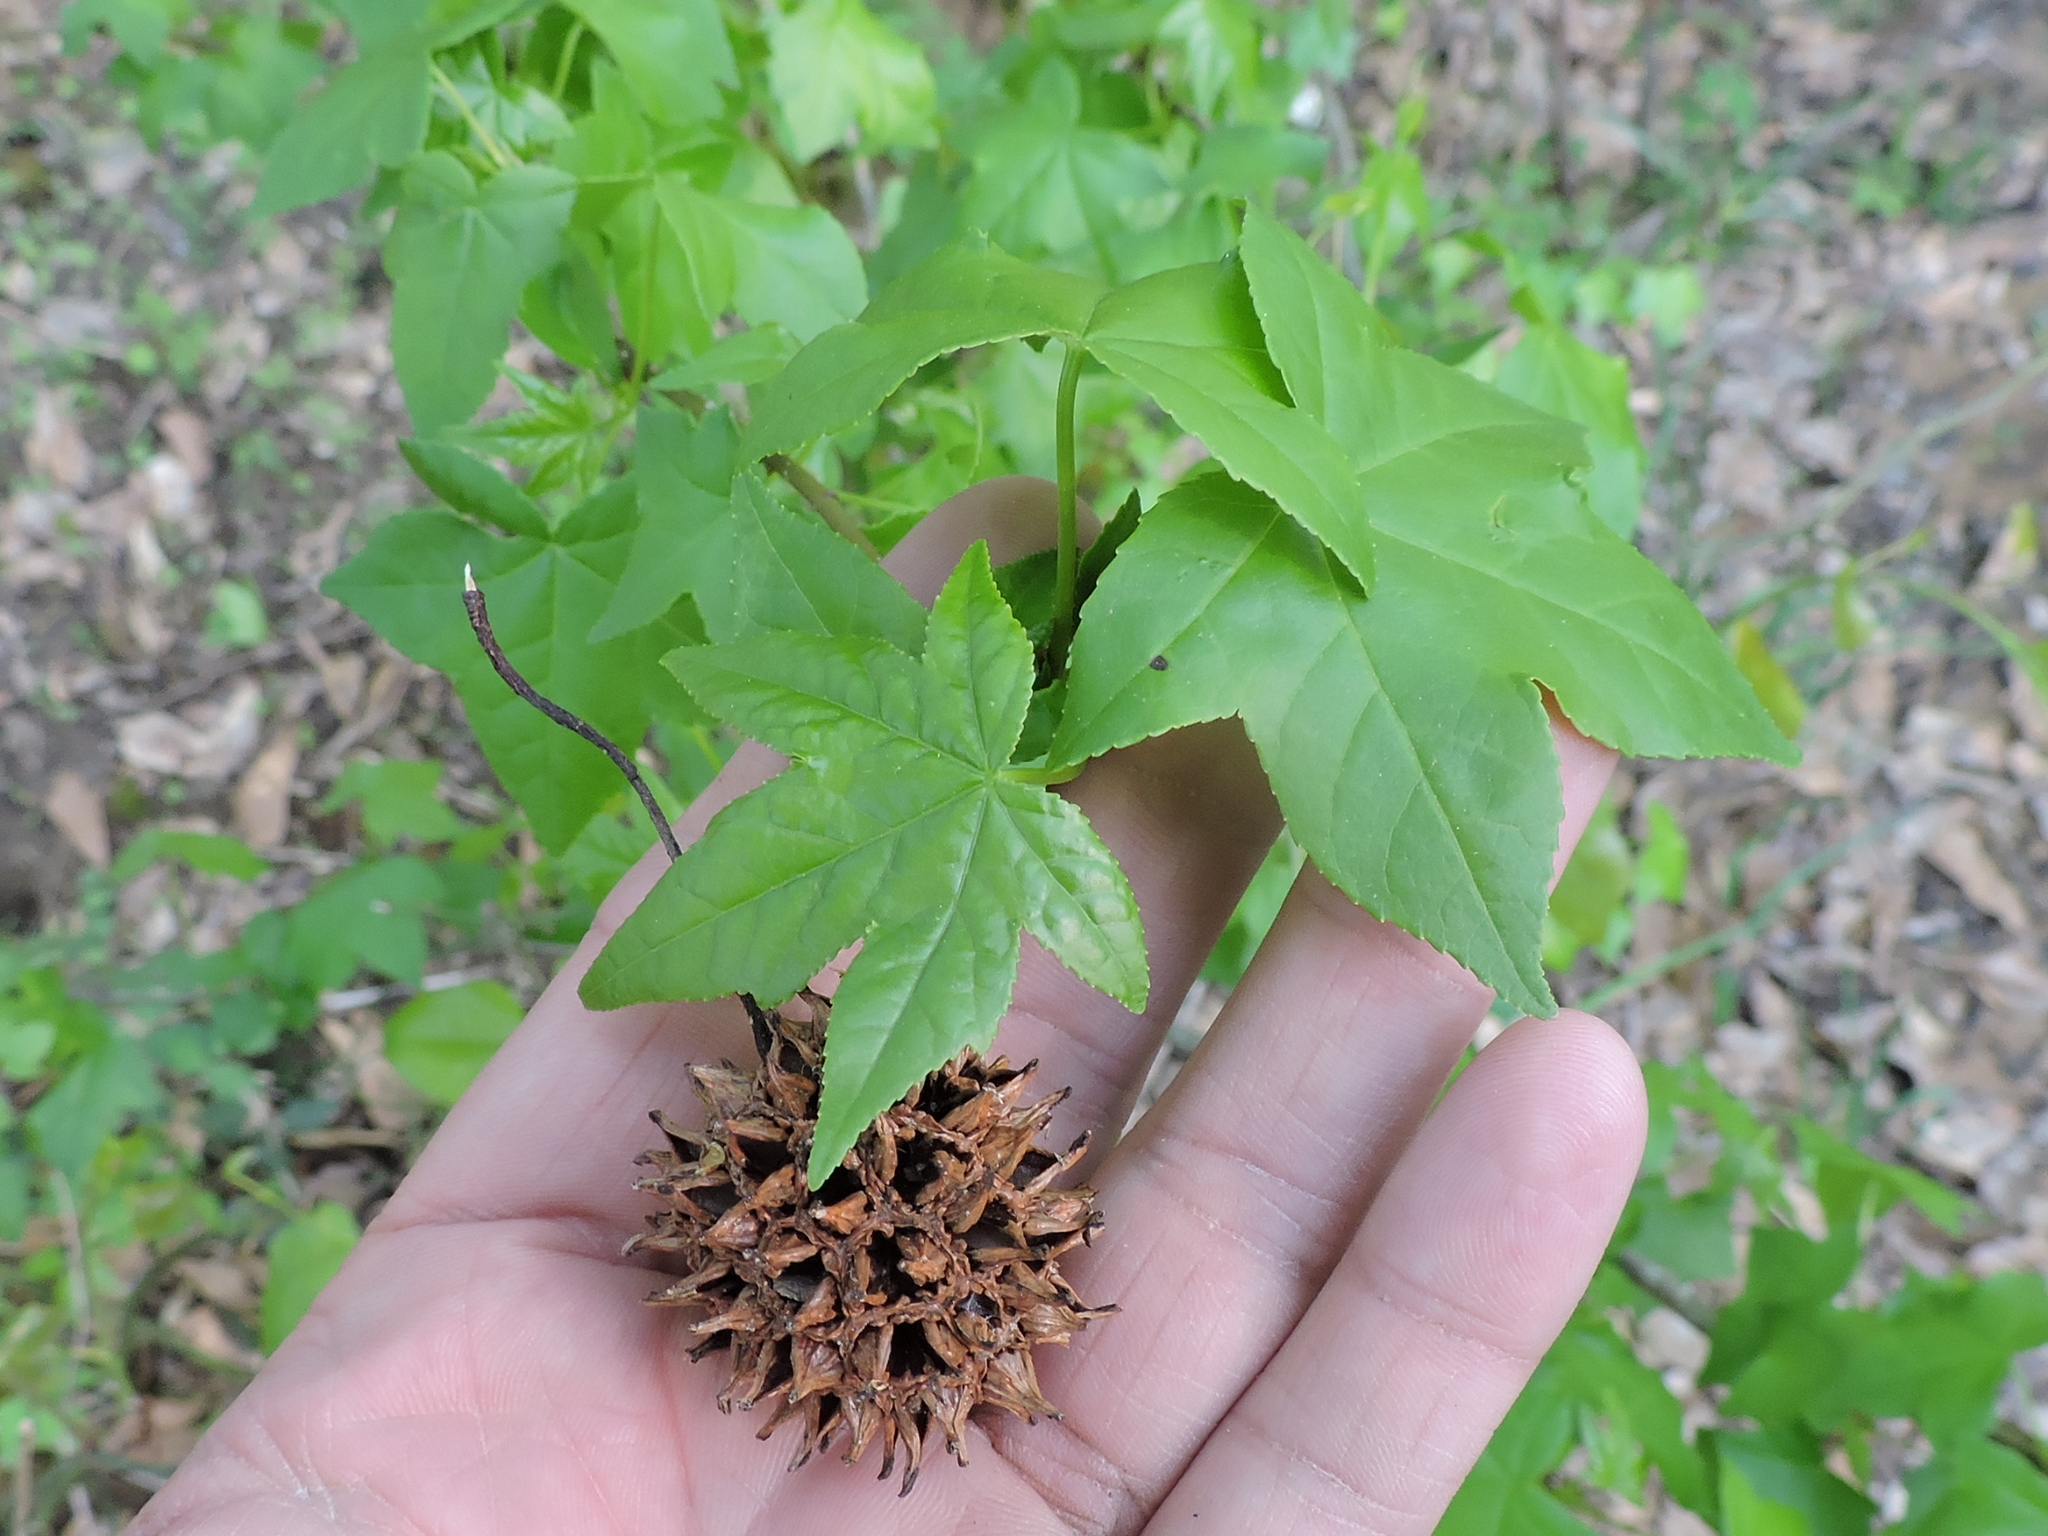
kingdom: Plantae
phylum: Tracheophyta
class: Magnoliopsida
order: Saxifragales
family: Altingiaceae
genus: Liquidambar
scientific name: Liquidambar styraciflua
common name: Sweet gum
